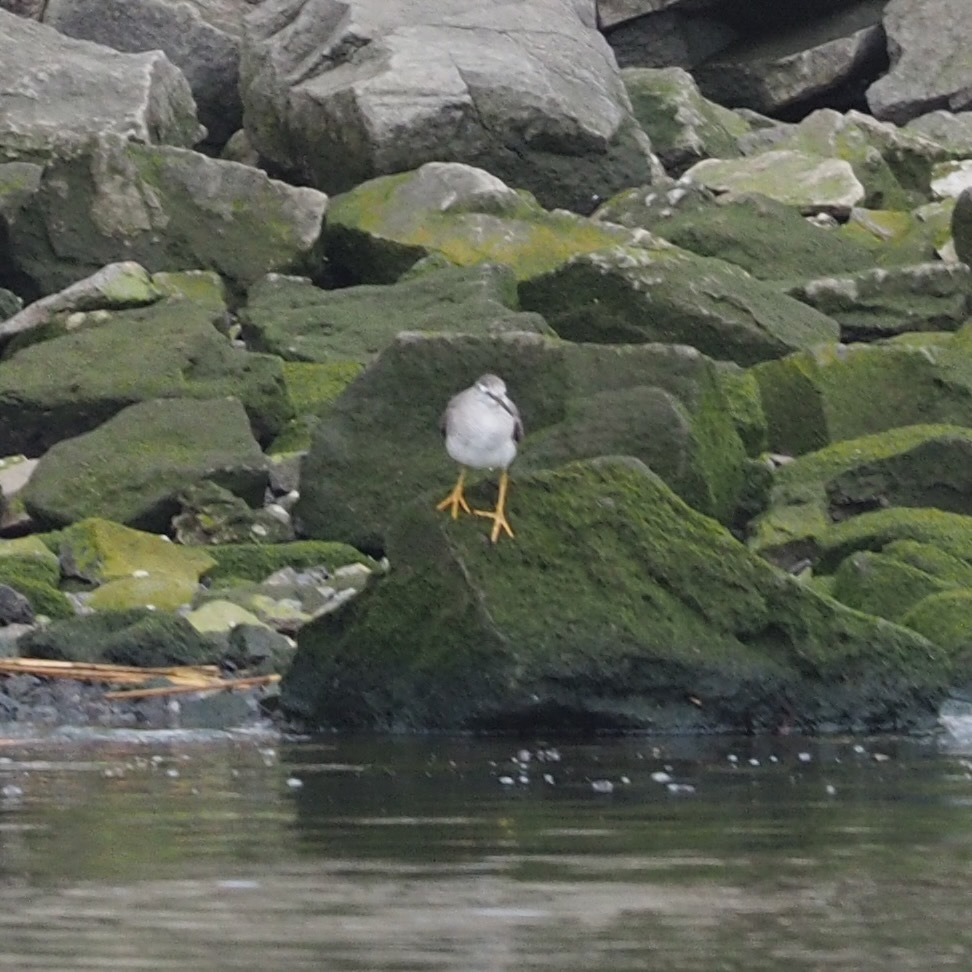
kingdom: Animalia
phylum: Chordata
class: Aves
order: Charadriiformes
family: Scolopacidae
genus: Tringa
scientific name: Tringa brevipes
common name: Grey-tailed tattler
